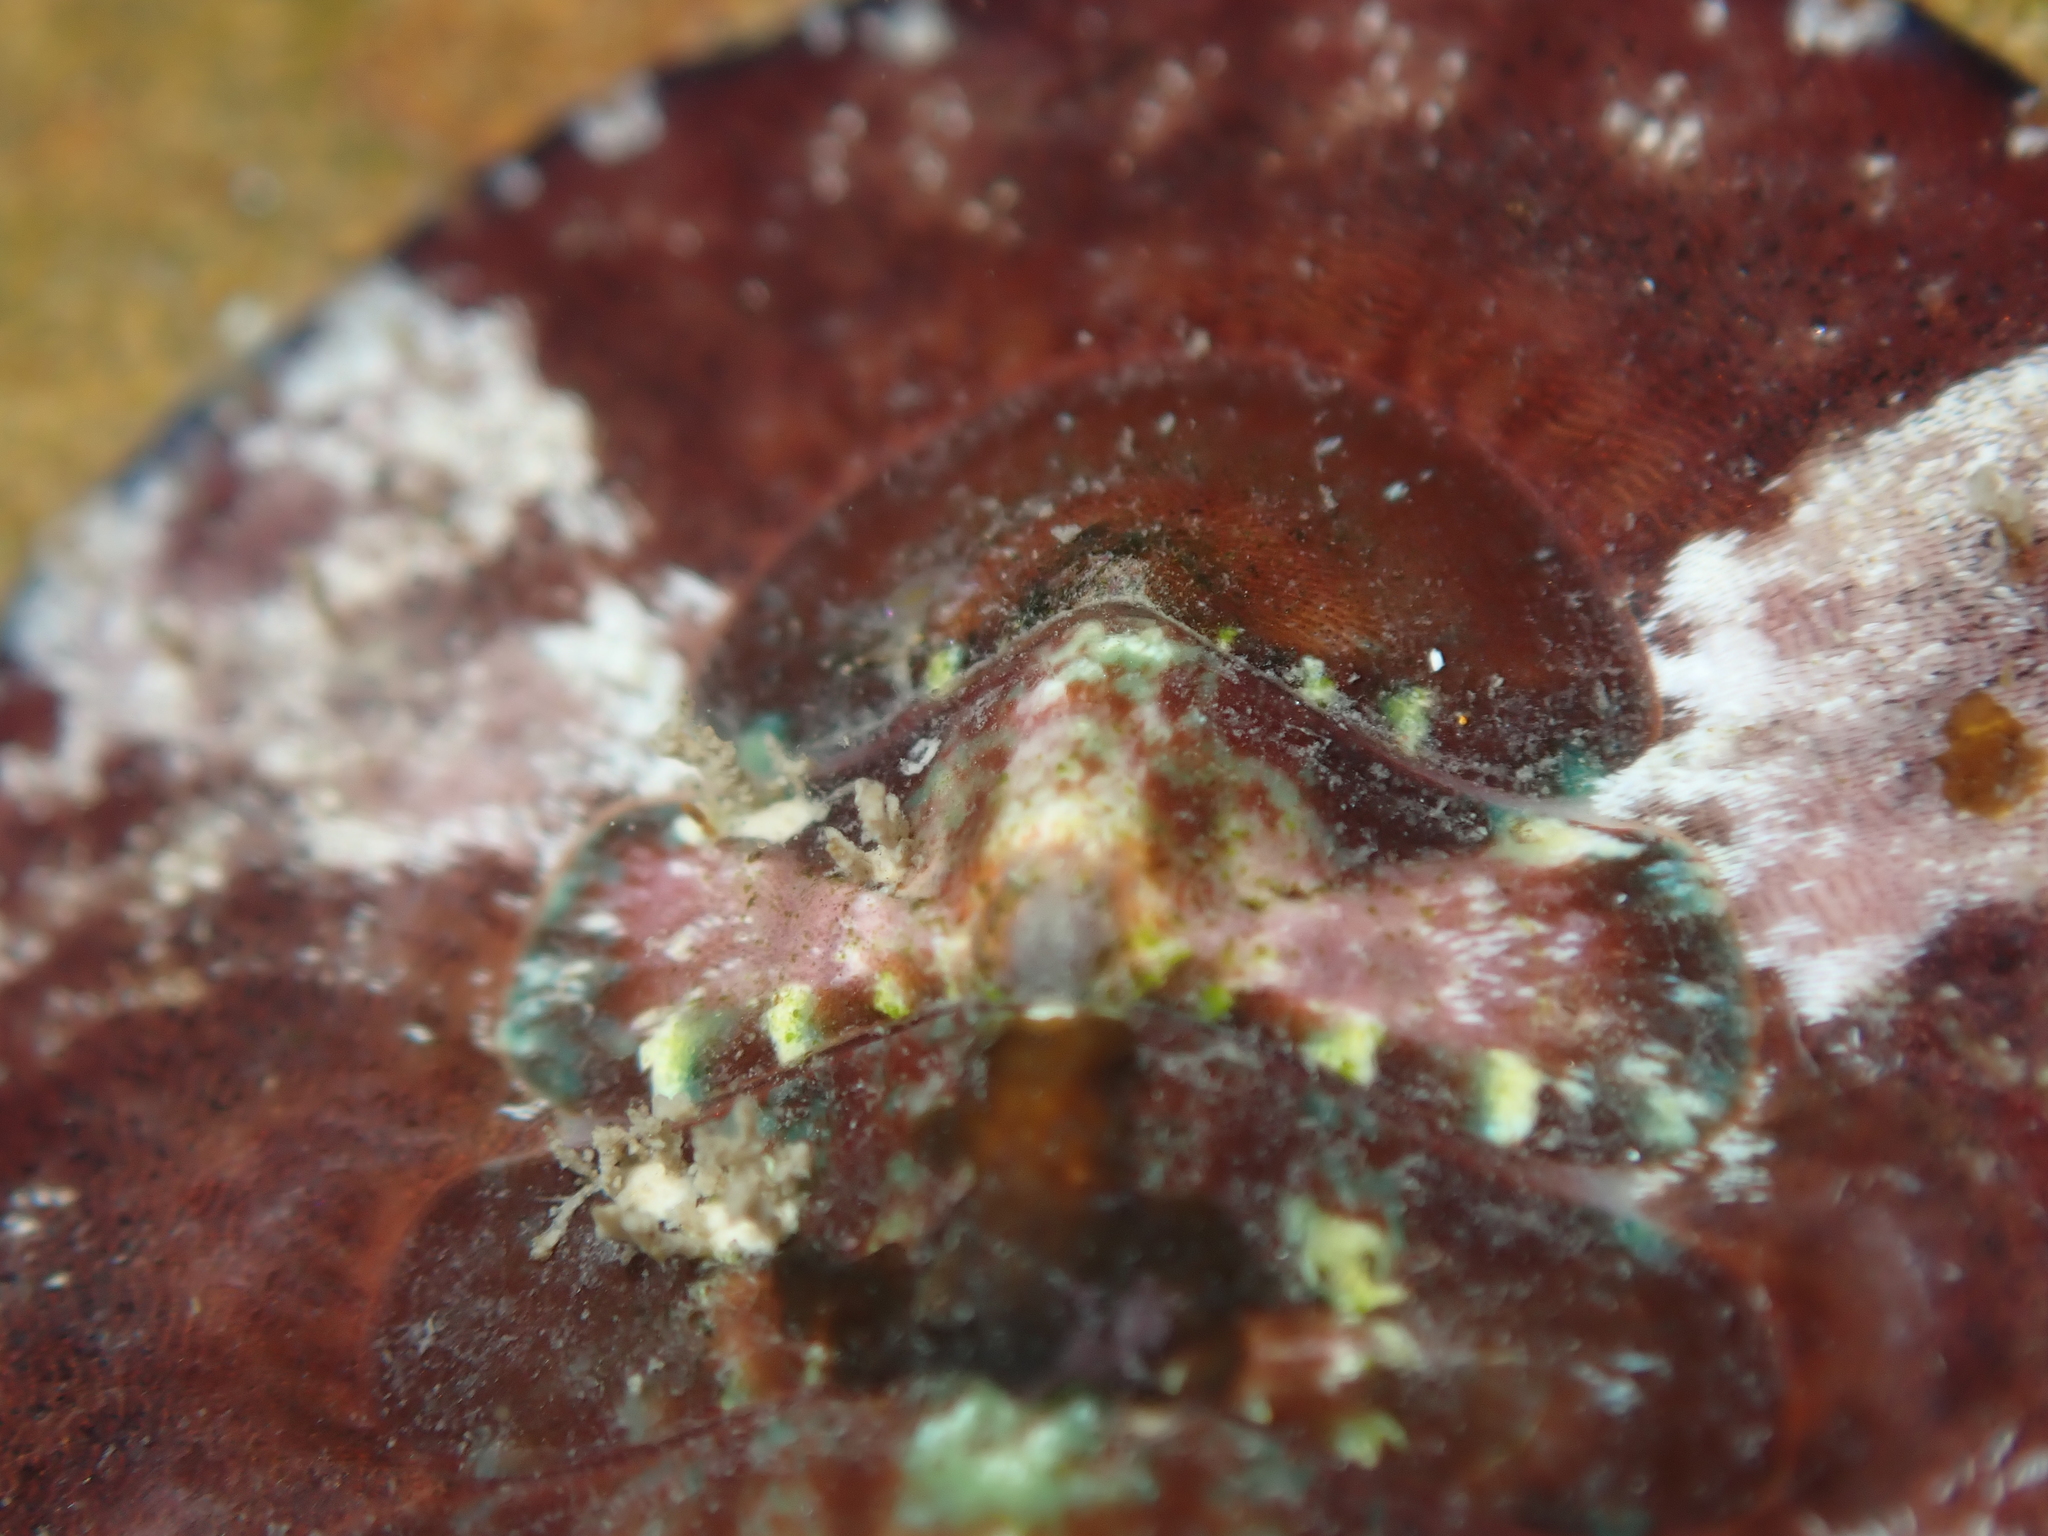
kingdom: Animalia
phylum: Mollusca
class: Polyplacophora
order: Callochitonida
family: Callochitonidae
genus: Eudoxochiton
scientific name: Eudoxochiton nobilis
